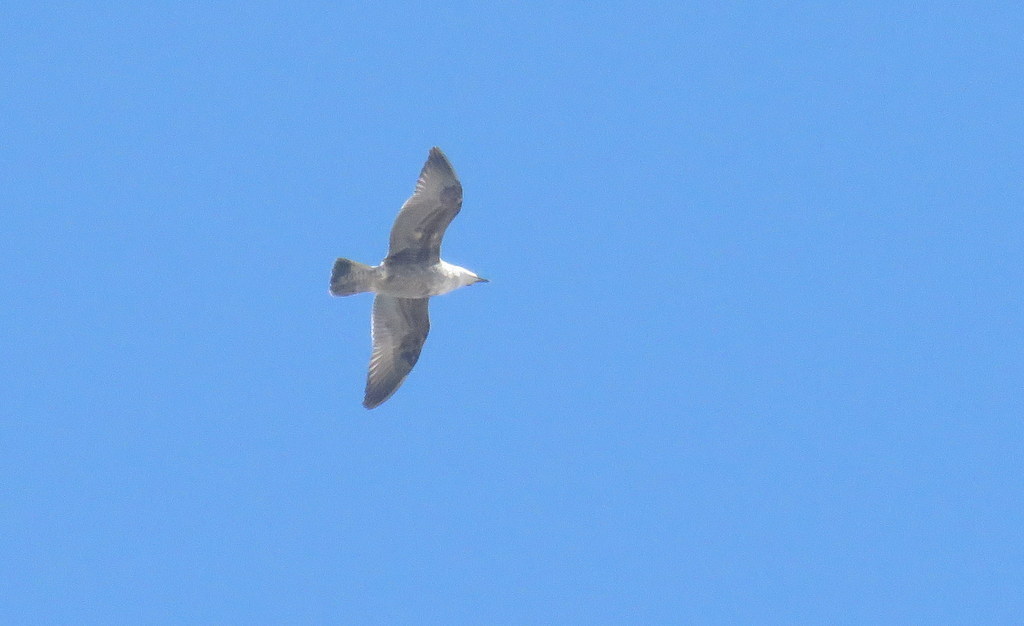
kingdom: Animalia
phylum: Chordata
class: Aves
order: Charadriiformes
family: Laridae
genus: Larus
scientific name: Larus dominicanus
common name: Kelp gull
